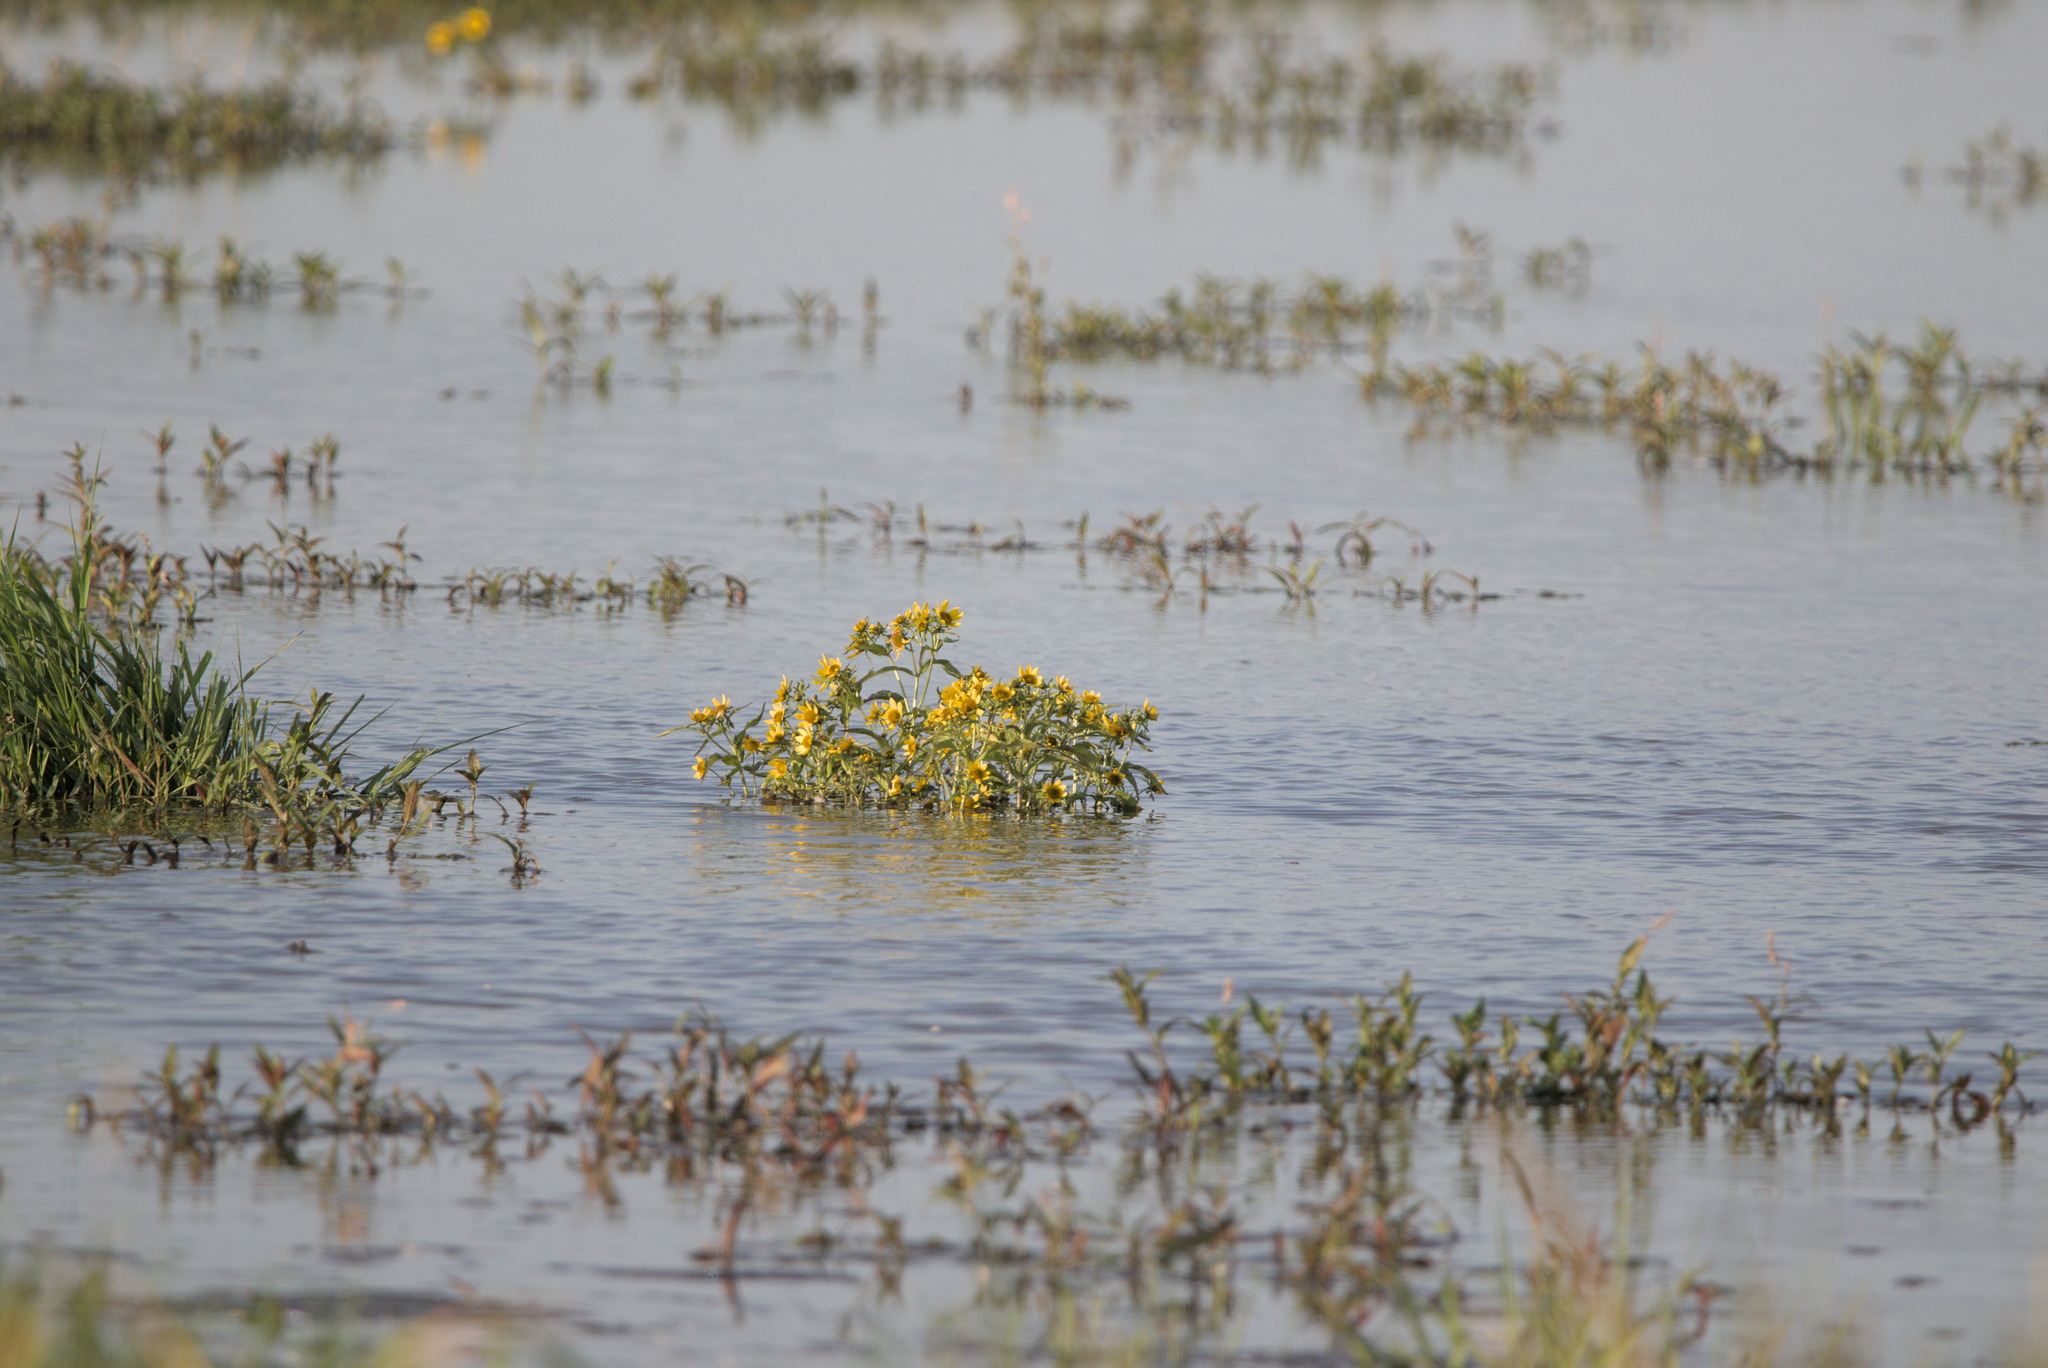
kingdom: Plantae
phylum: Tracheophyta
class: Magnoliopsida
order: Asterales
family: Asteraceae
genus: Bidens
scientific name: Bidens cernua
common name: Nodding bur-marigold
